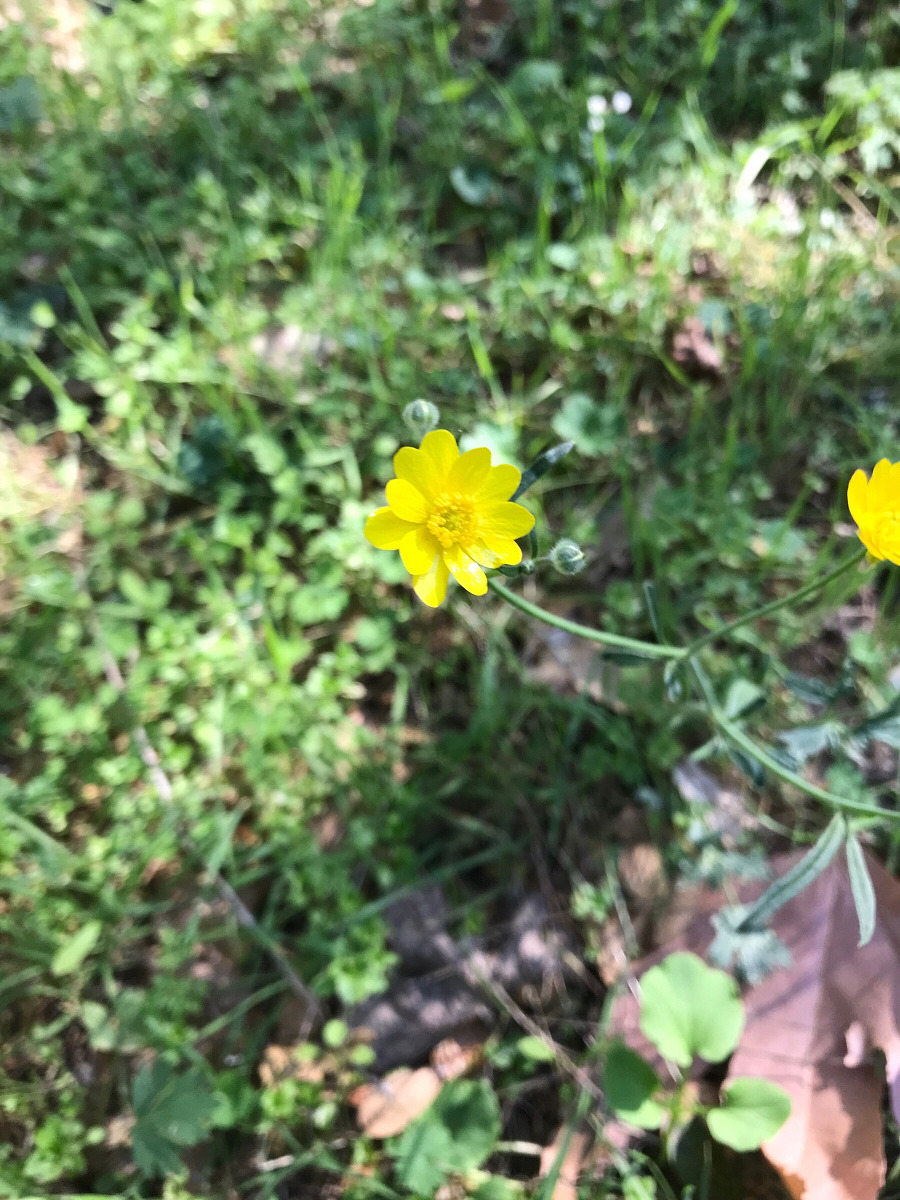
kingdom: Plantae
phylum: Tracheophyta
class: Magnoliopsida
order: Ranunculales
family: Ranunculaceae
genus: Ranunculus
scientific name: Ranunculus californicus
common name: California buttercup
